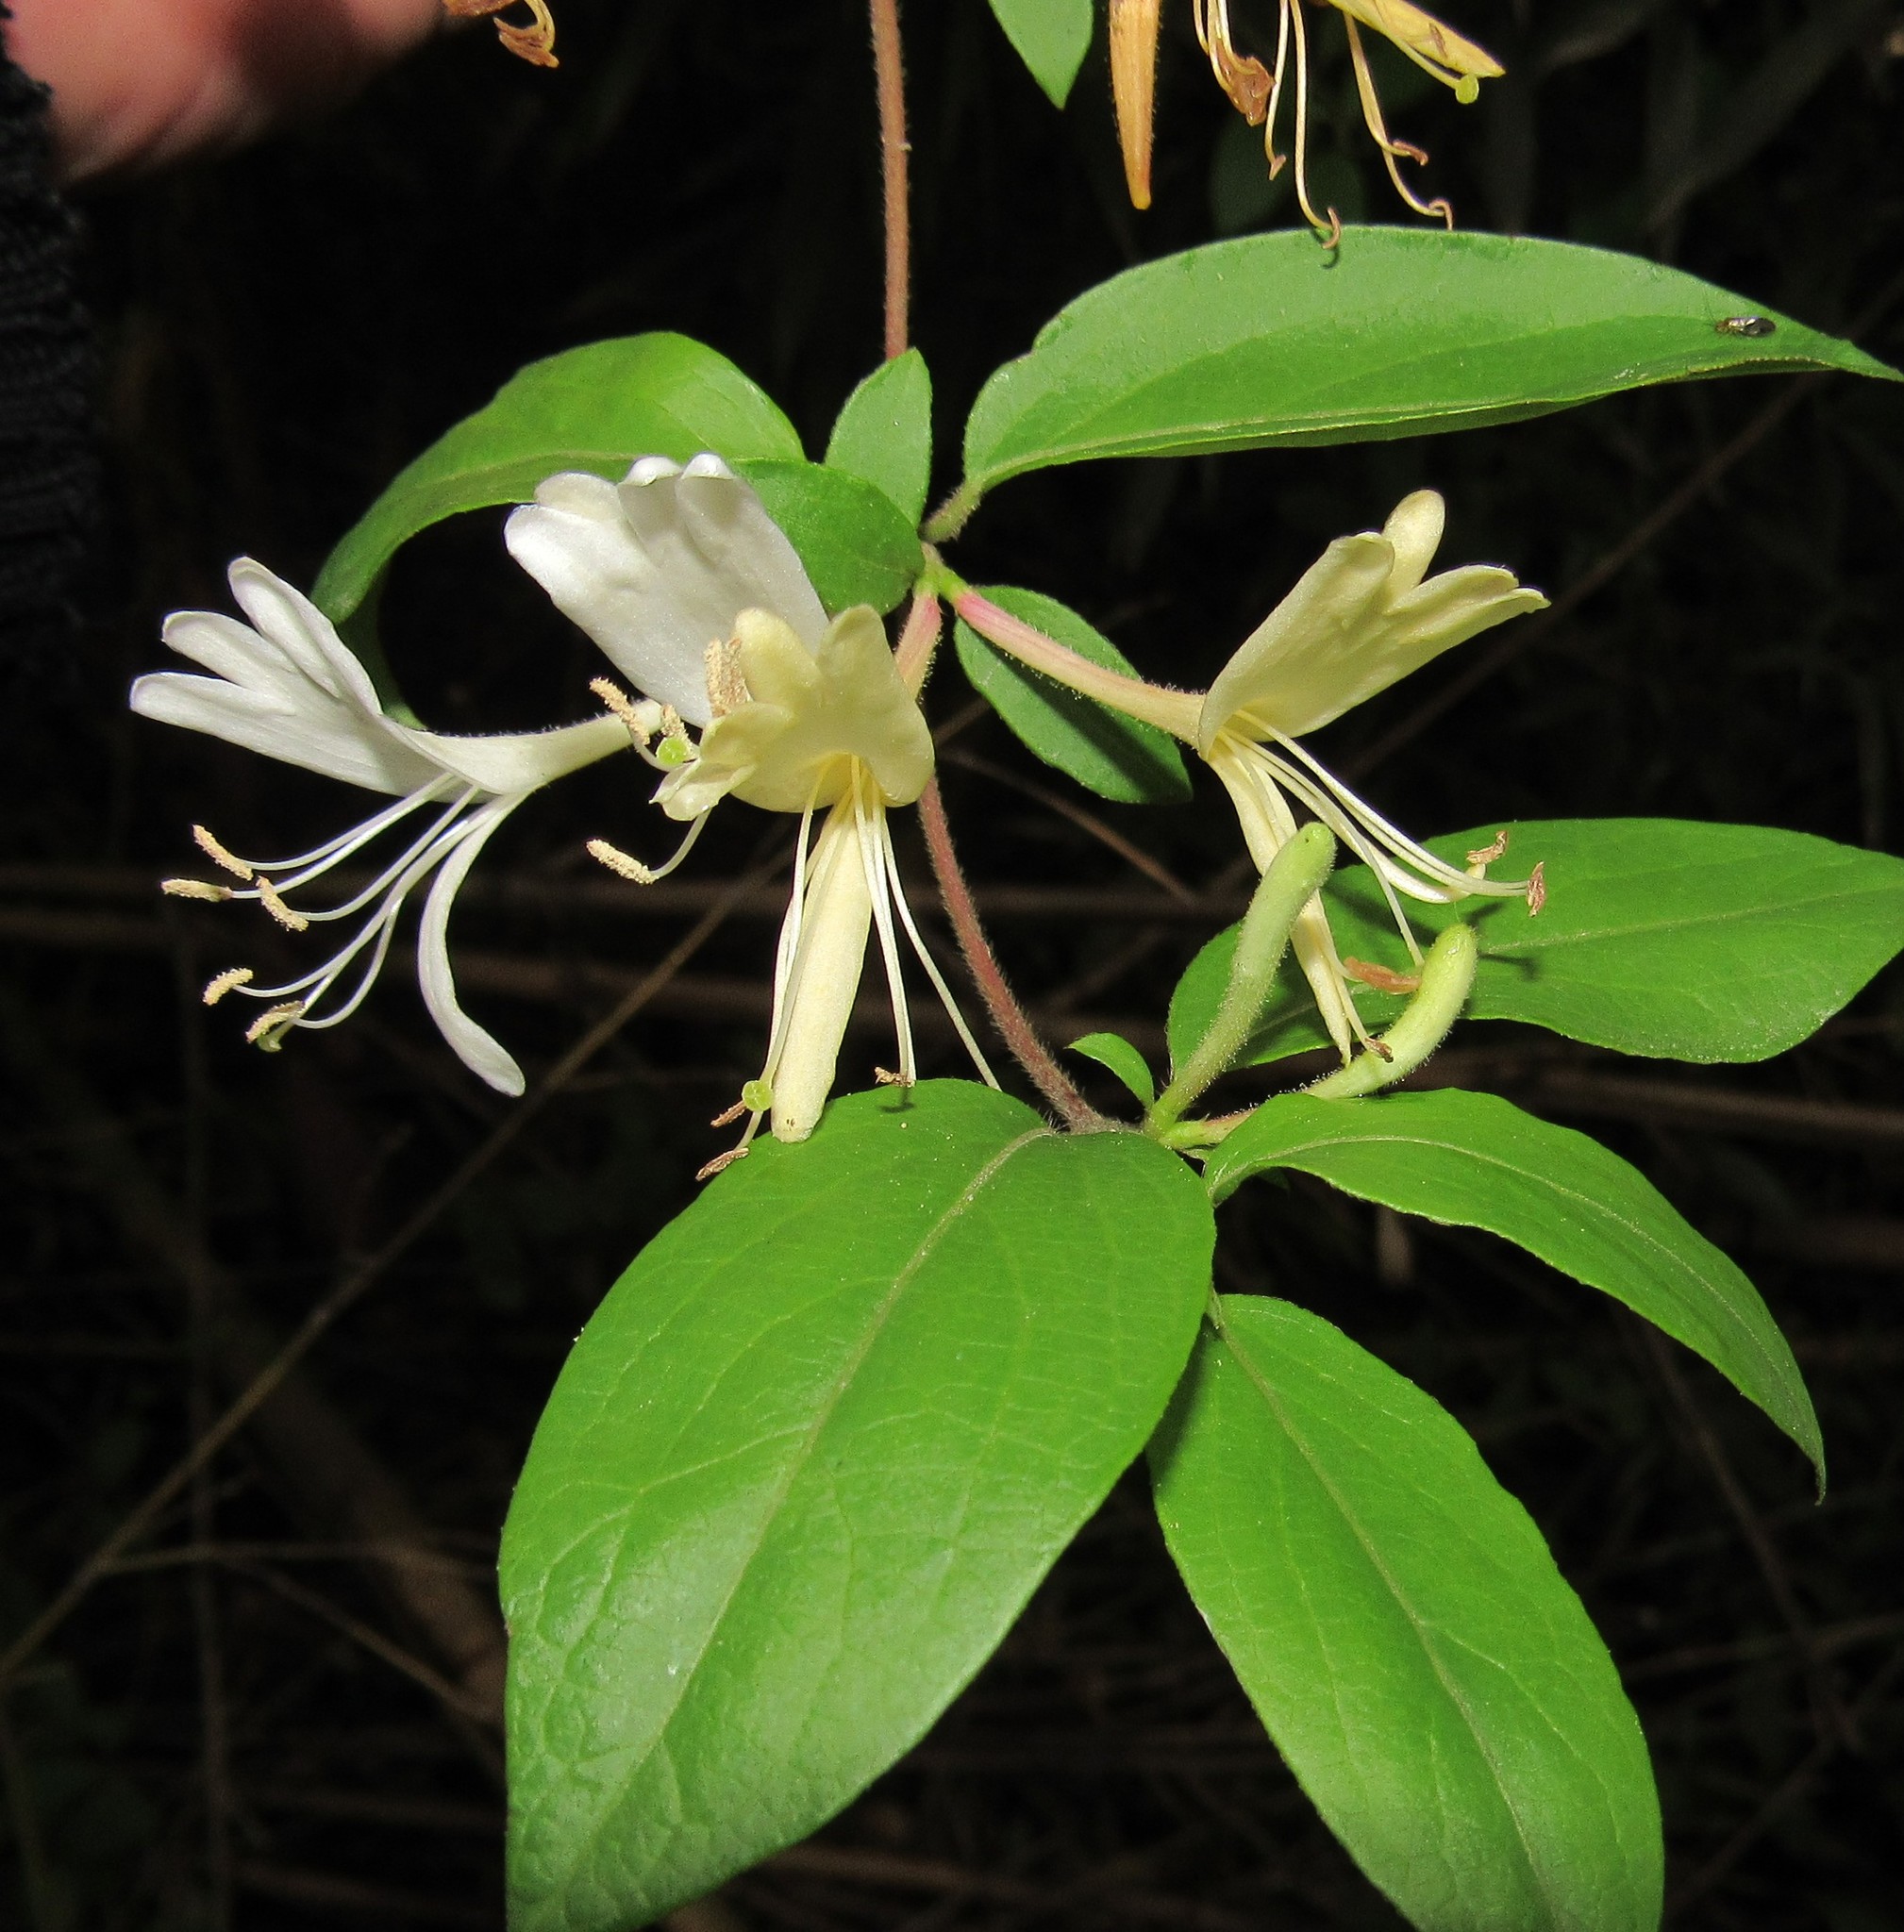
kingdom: Plantae
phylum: Tracheophyta
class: Magnoliopsida
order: Dipsacales
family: Caprifoliaceae
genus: Lonicera
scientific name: Lonicera japonica
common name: Japanese honeysuckle
